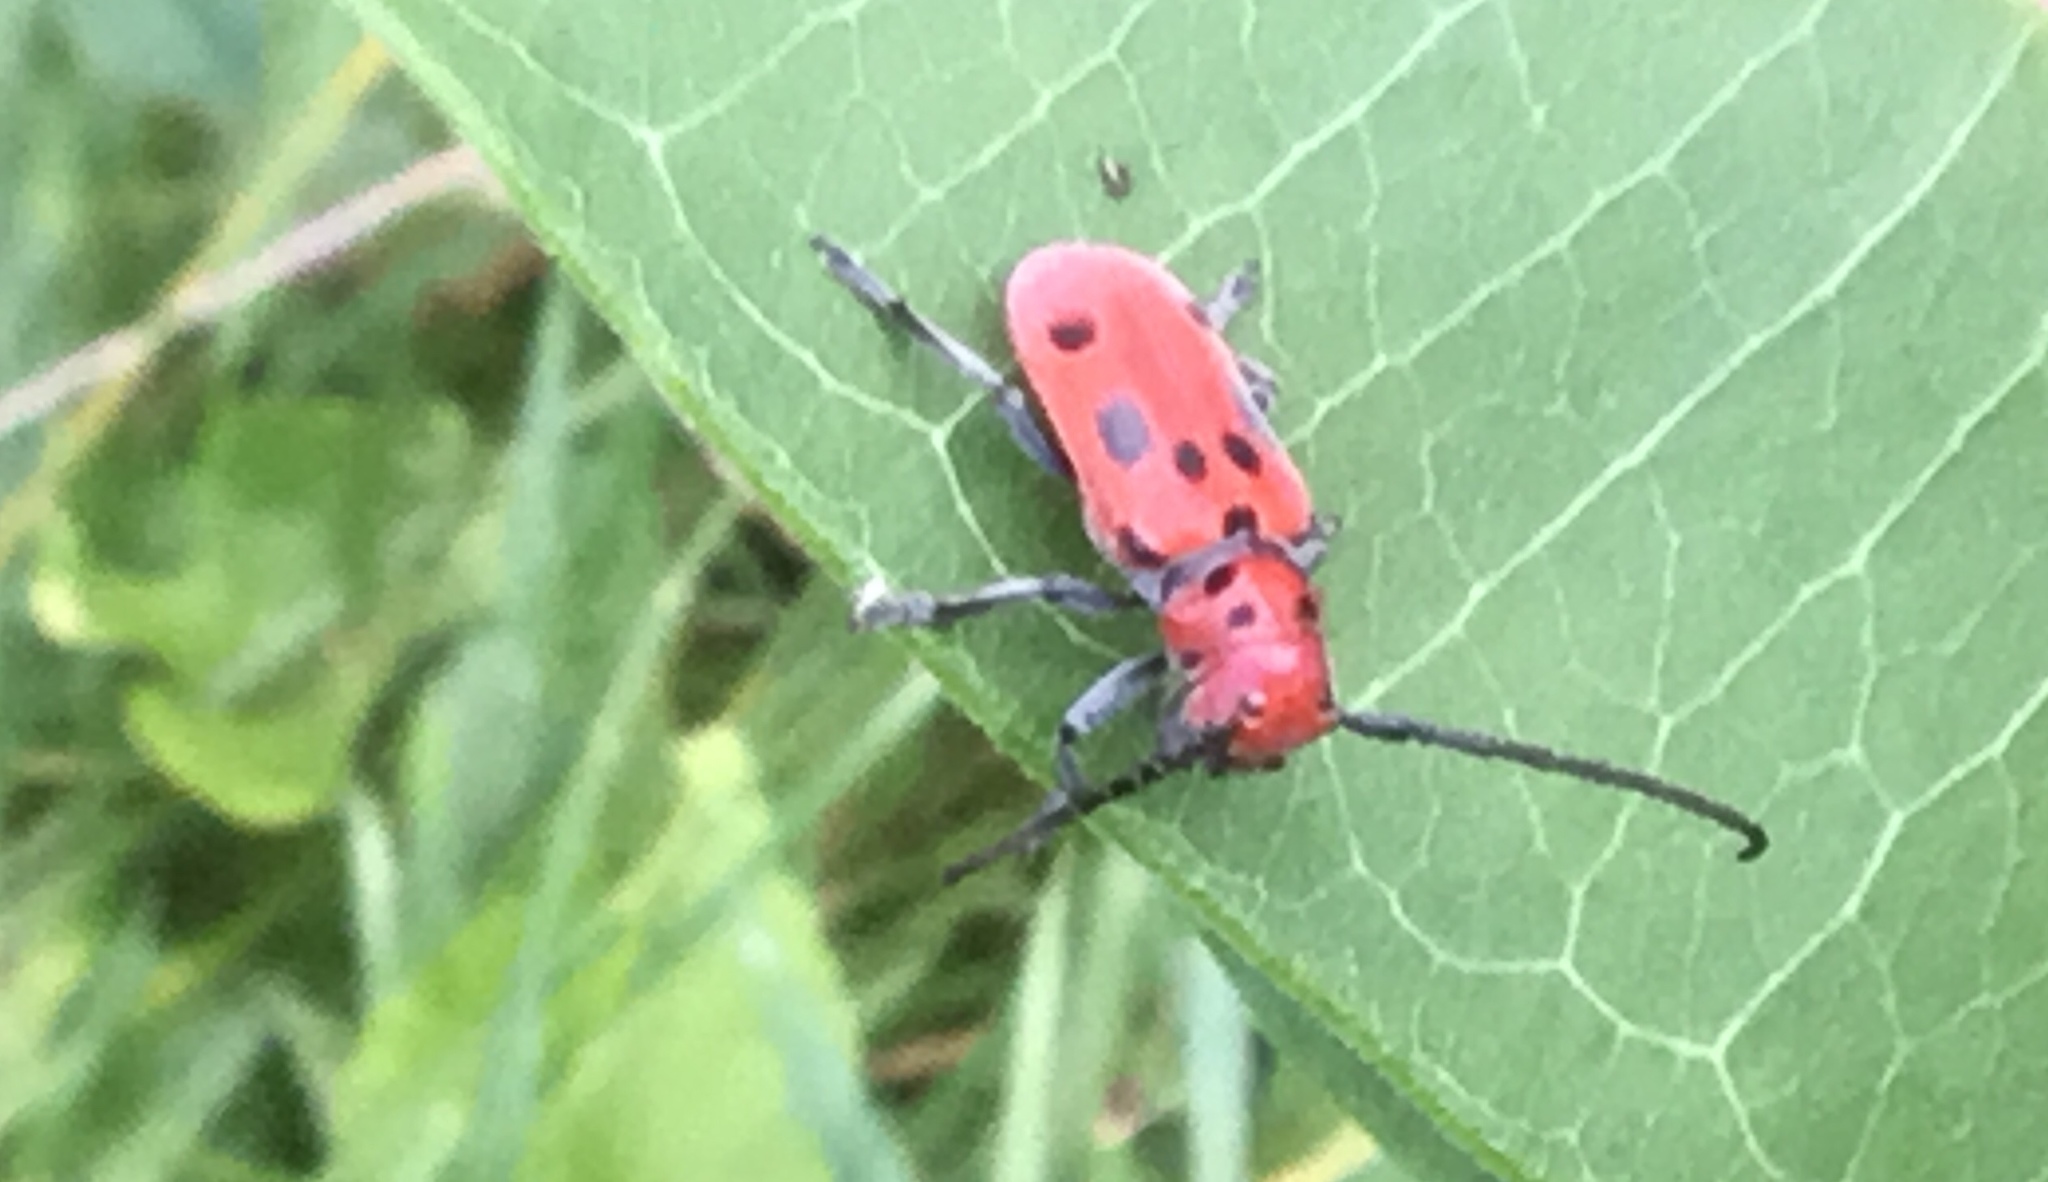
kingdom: Animalia
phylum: Arthropoda
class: Insecta
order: Coleoptera
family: Cerambycidae
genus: Tetraopes
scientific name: Tetraopes tetrophthalmus
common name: Red milkweed beetle
